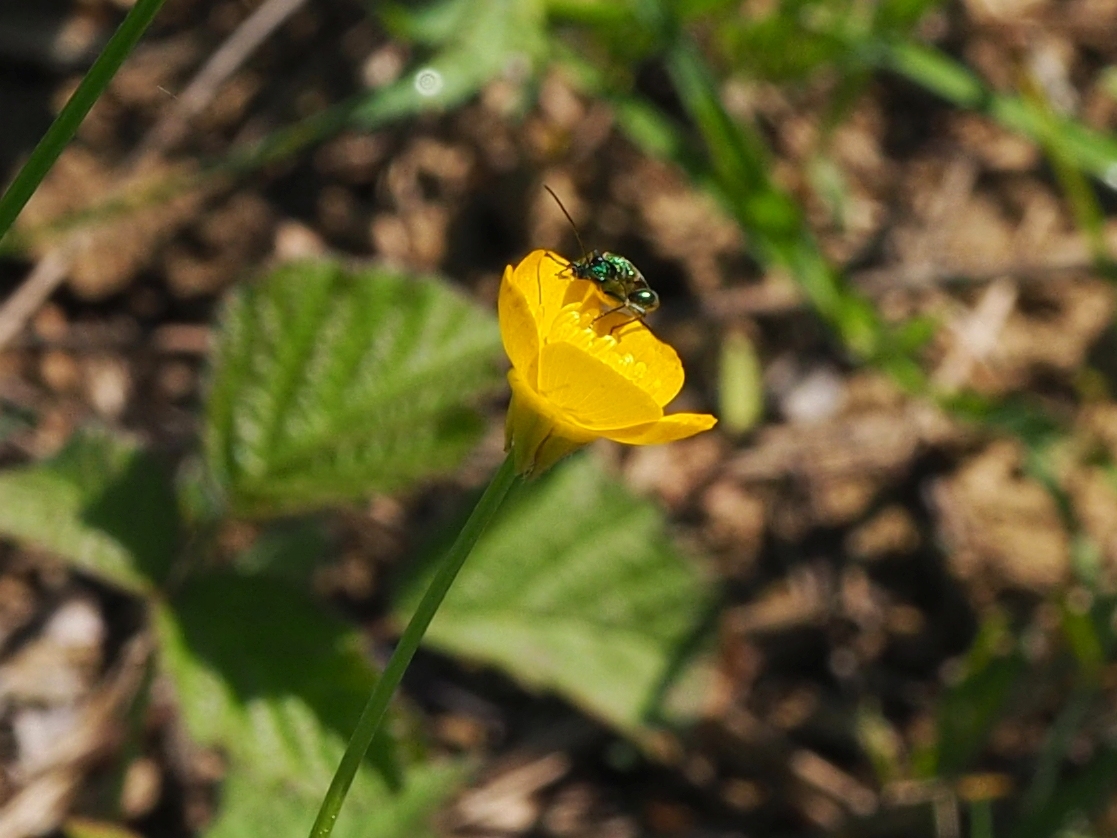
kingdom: Animalia
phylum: Arthropoda
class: Insecta
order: Coleoptera
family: Oedemeridae
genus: Oedemera
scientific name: Oedemera nobilis
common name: Swollen-thighed beetle
